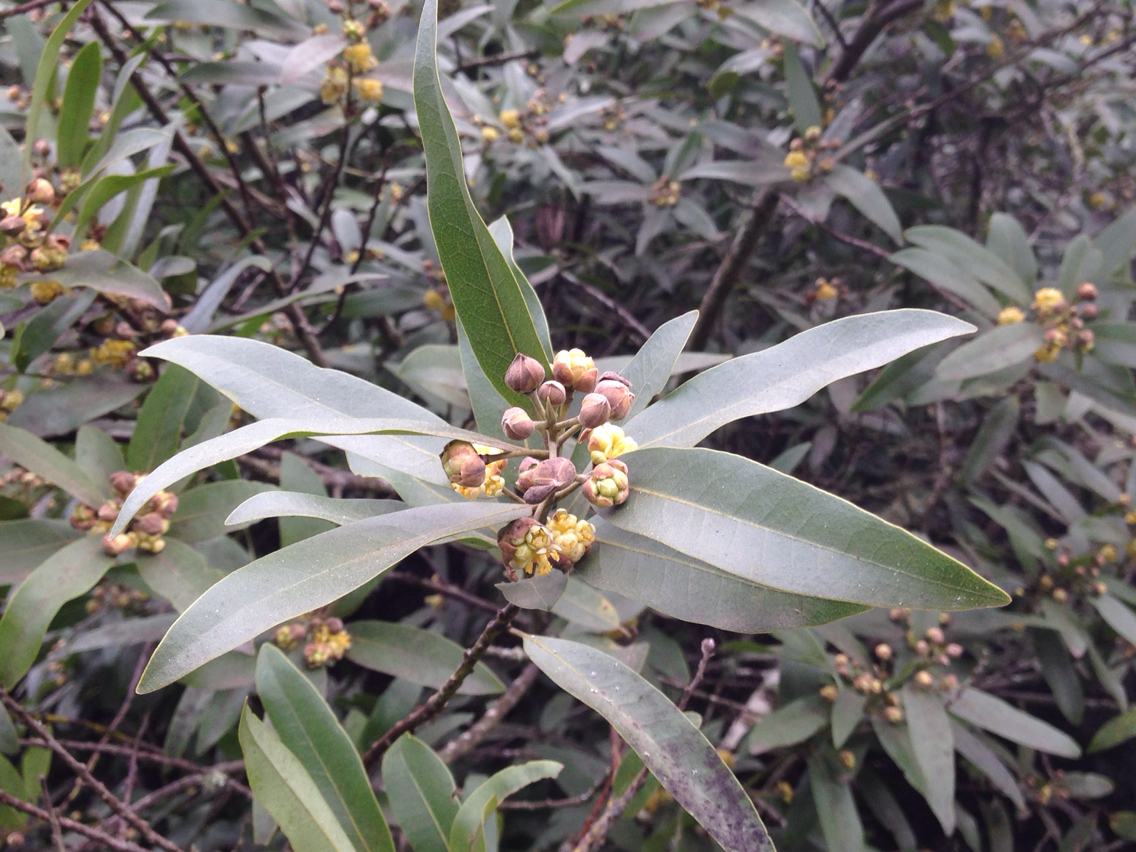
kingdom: Plantae
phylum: Tracheophyta
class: Magnoliopsida
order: Laurales
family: Lauraceae
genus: Umbellularia
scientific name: Umbellularia californica
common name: California bay
